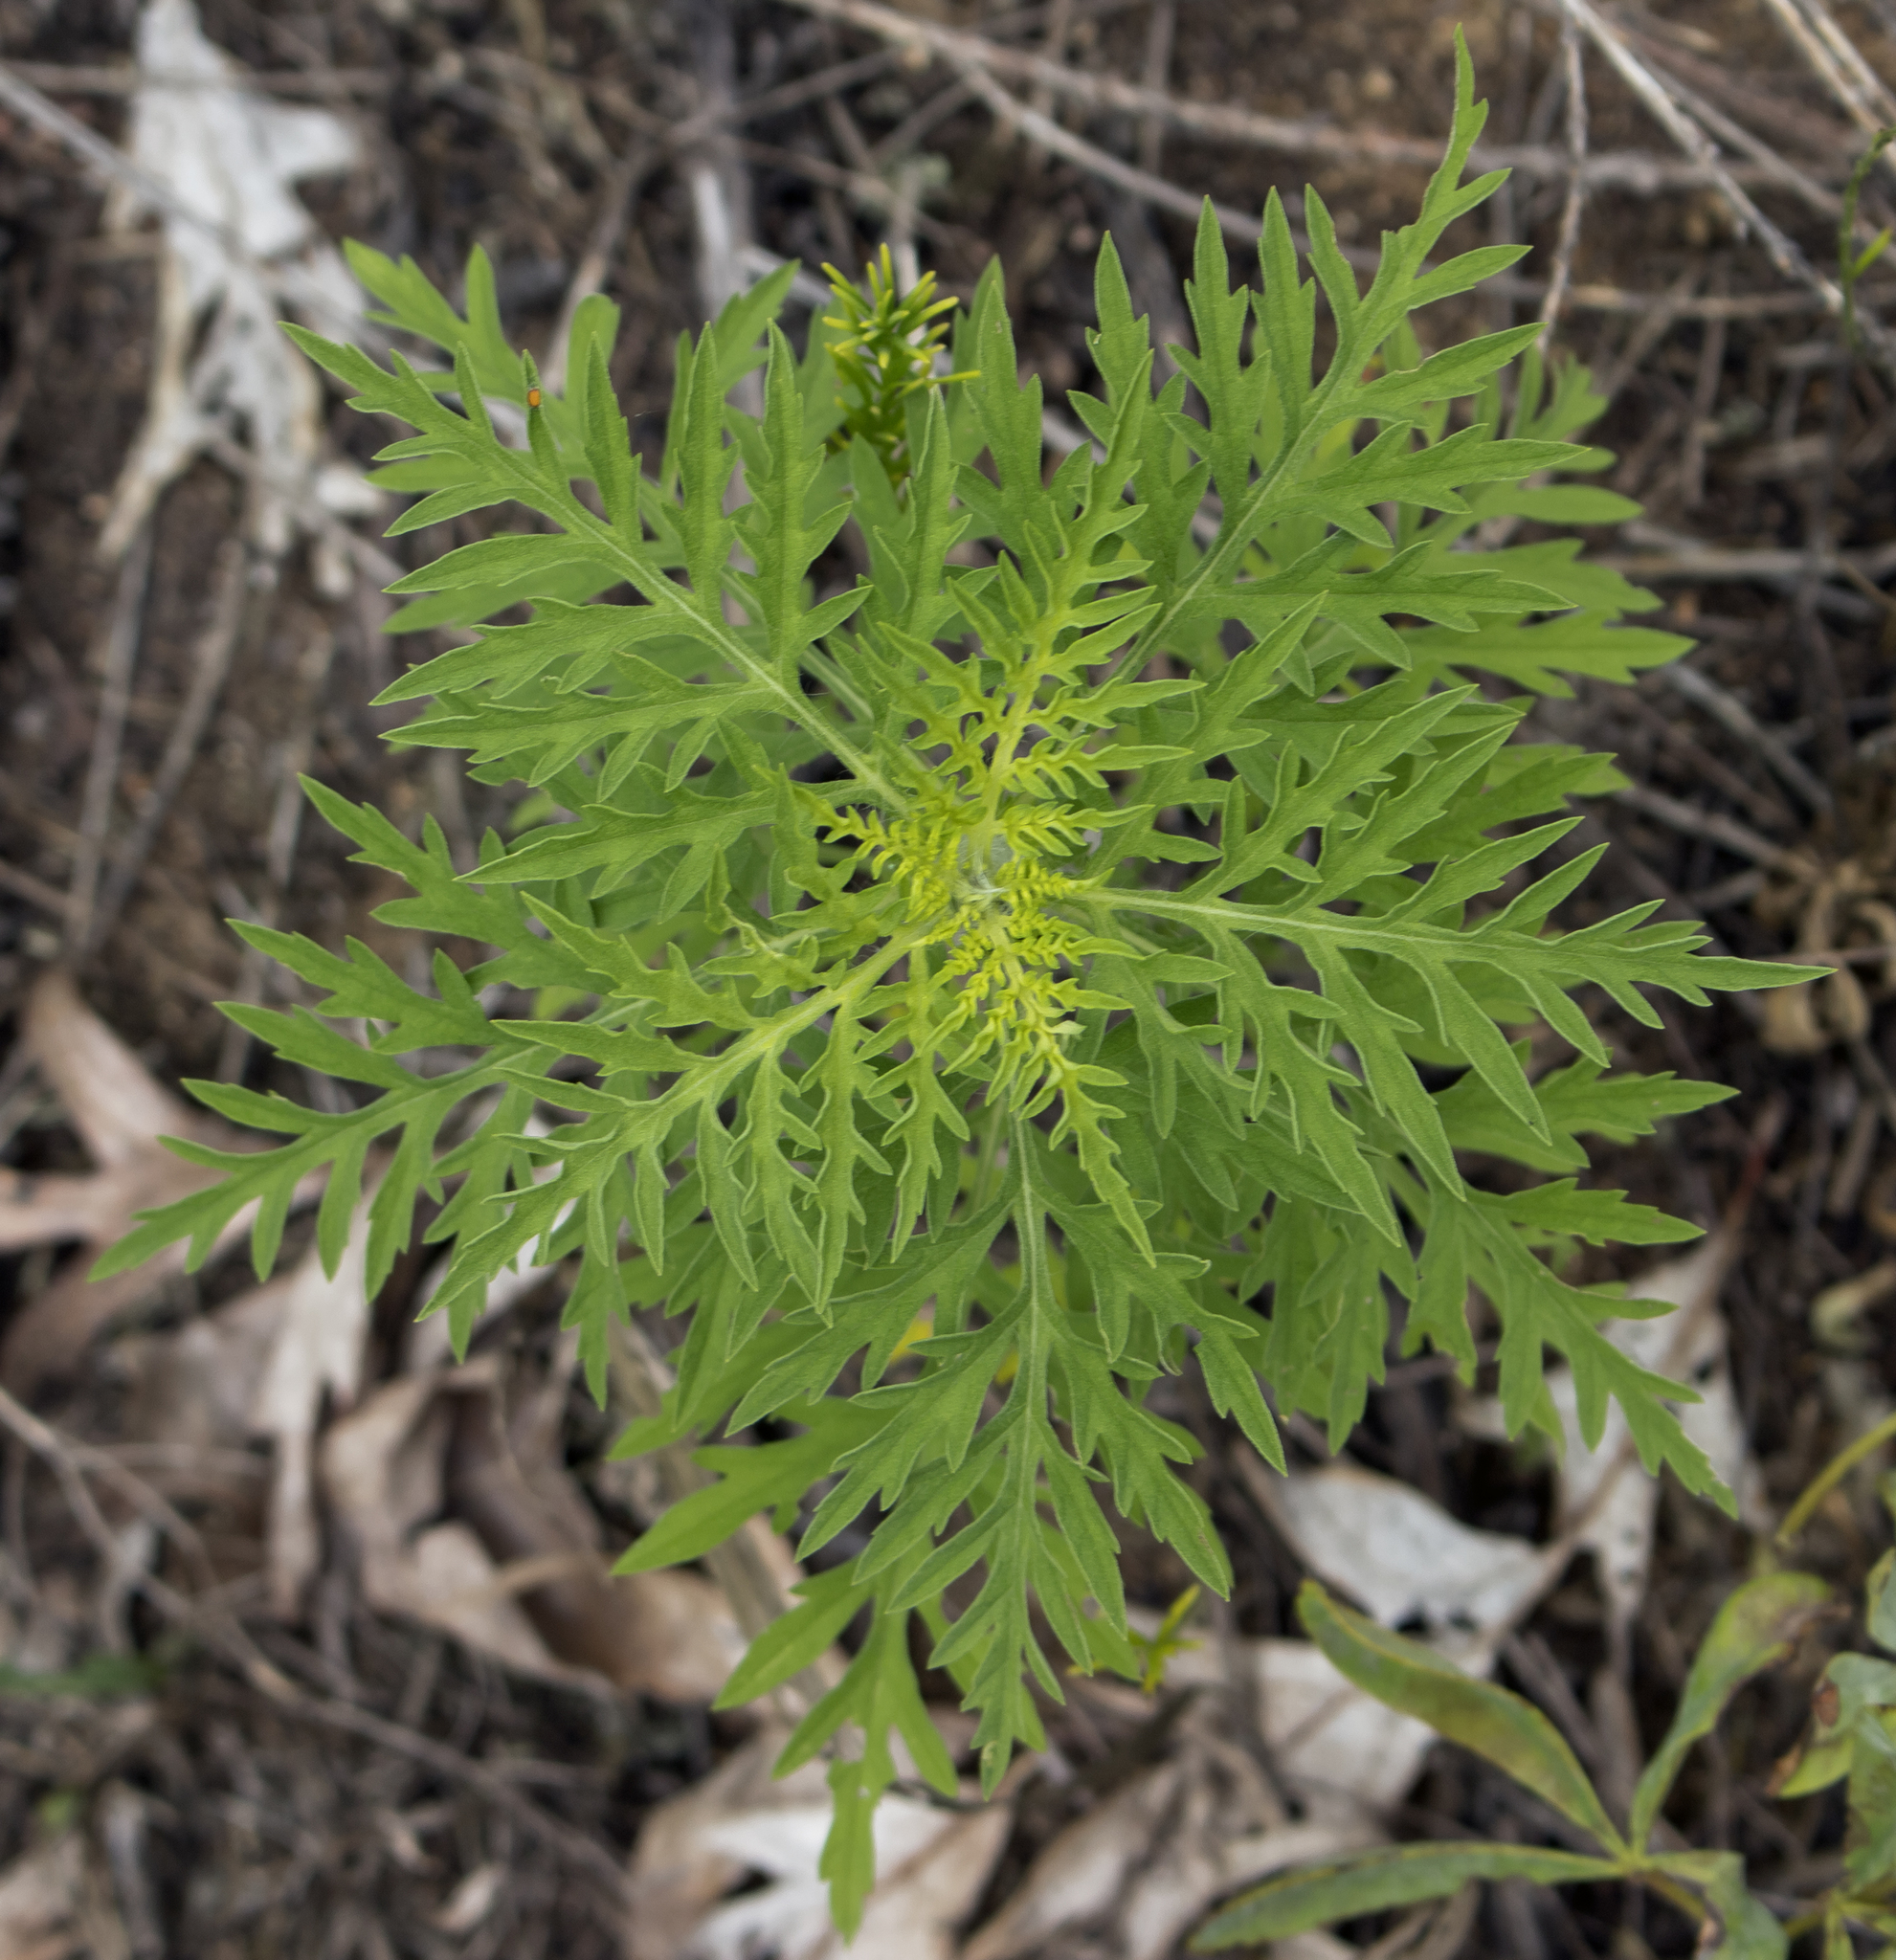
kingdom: Plantae
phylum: Tracheophyta
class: Magnoliopsida
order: Asterales
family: Asteraceae
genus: Ambrosia
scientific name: Ambrosia artemisiifolia
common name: Annual ragweed
